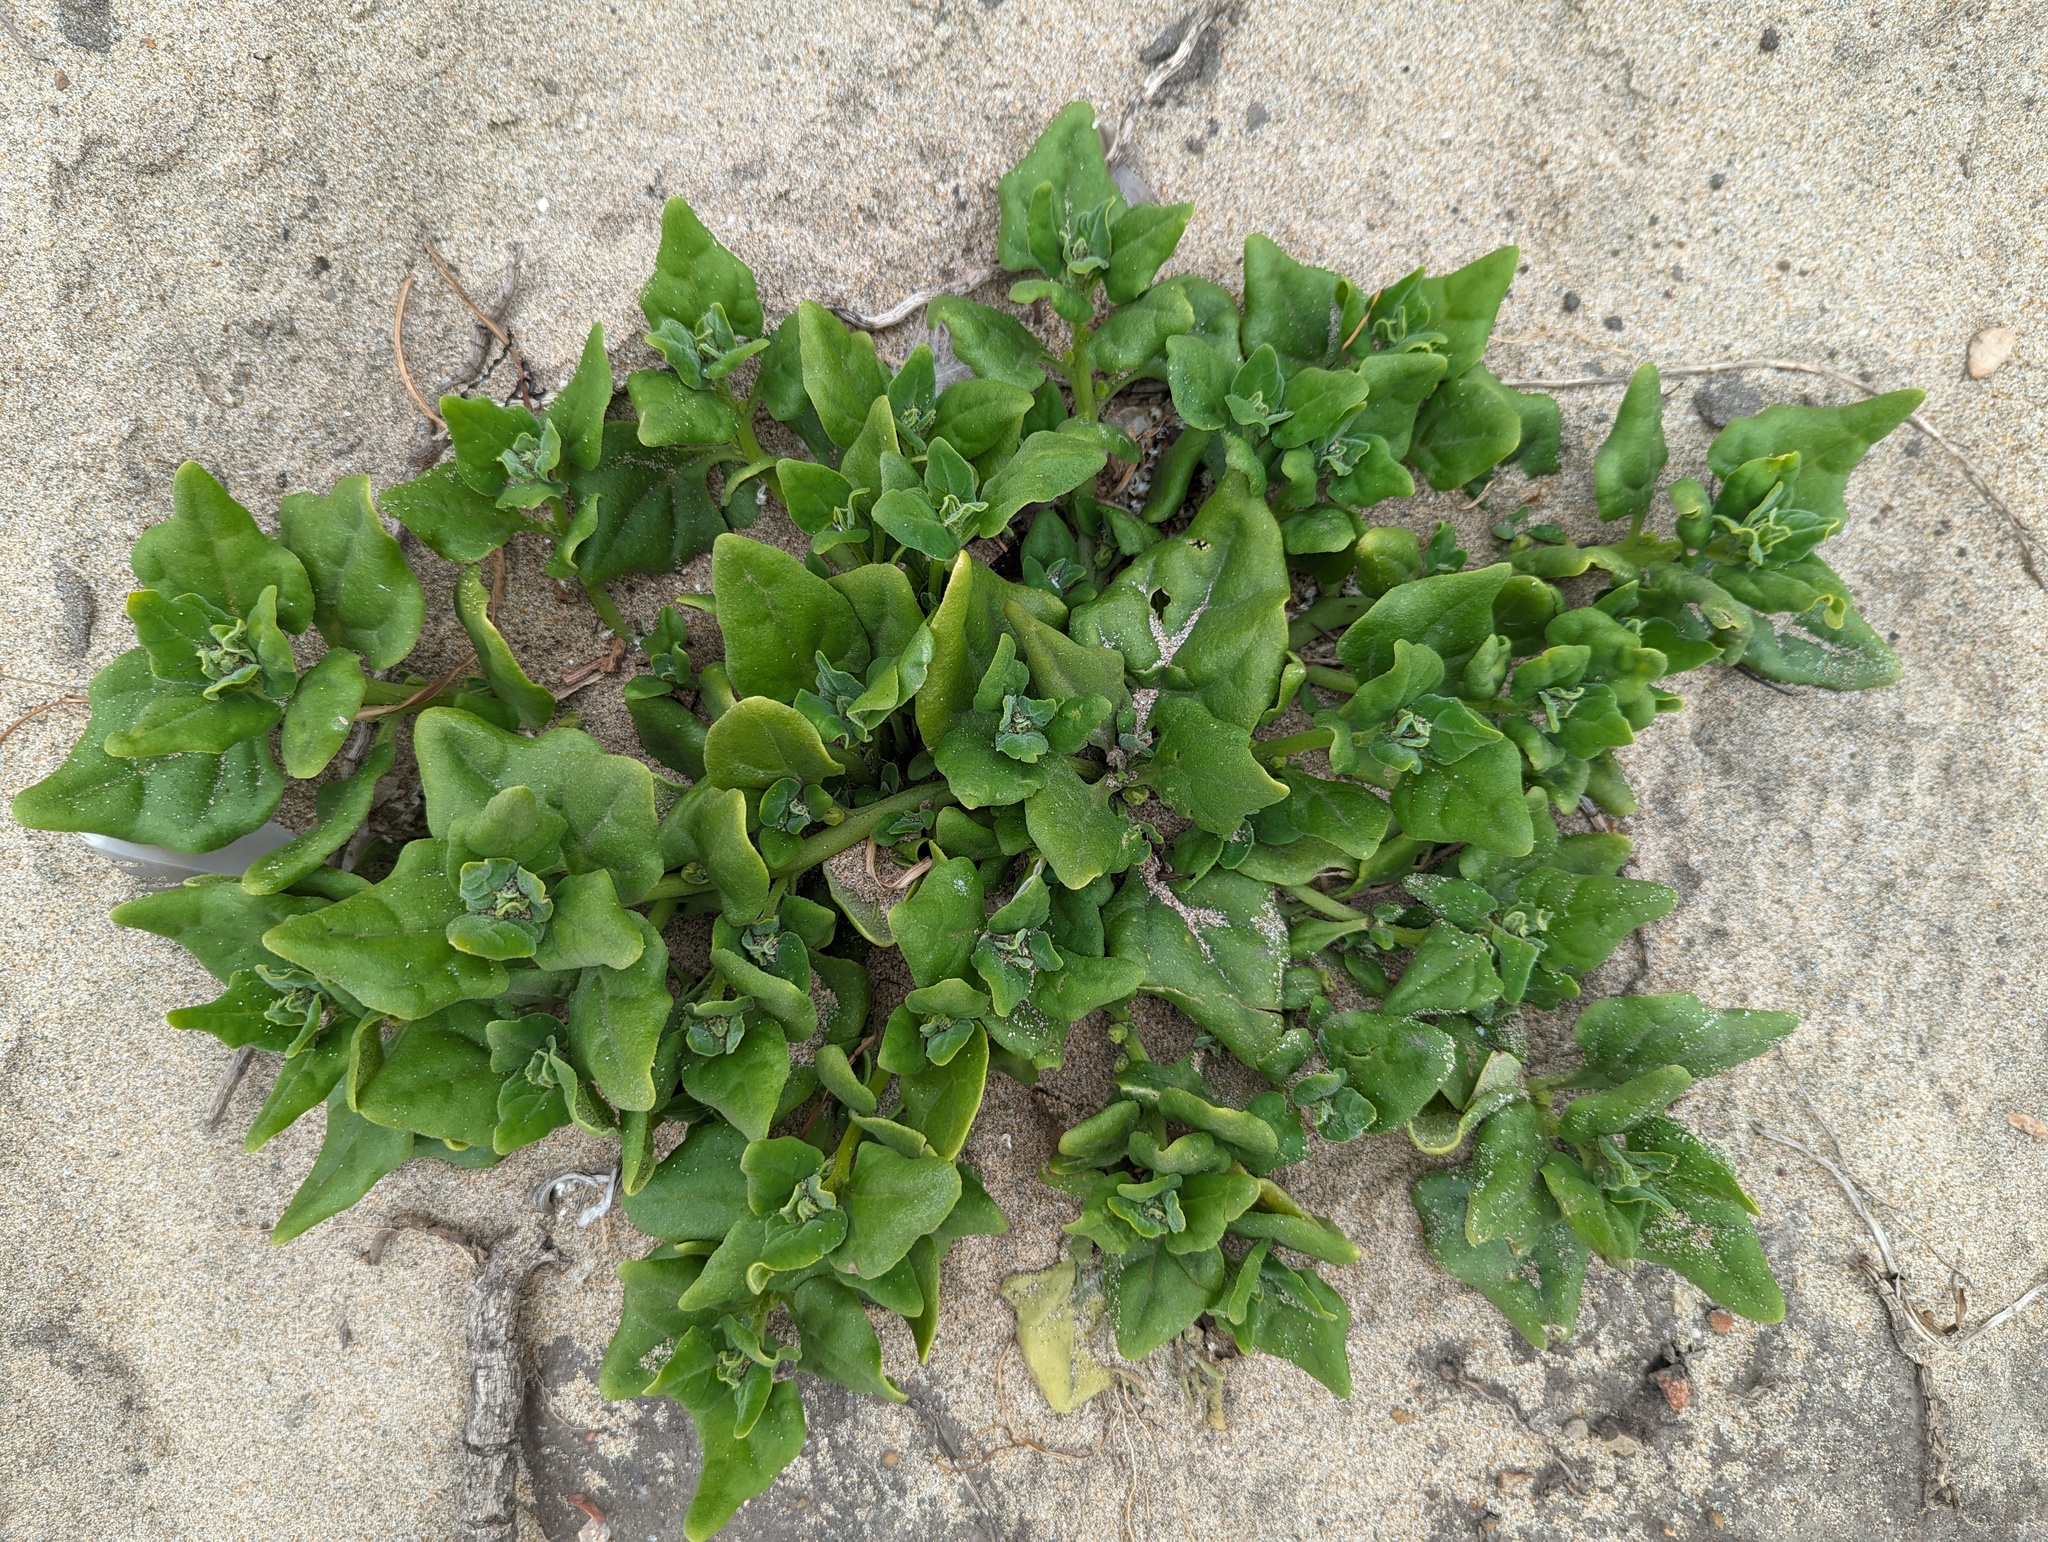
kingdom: Plantae
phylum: Tracheophyta
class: Magnoliopsida
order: Caryophyllales
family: Aizoaceae
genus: Tetragonia
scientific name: Tetragonia tetragonoides
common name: New zealand-spinach
